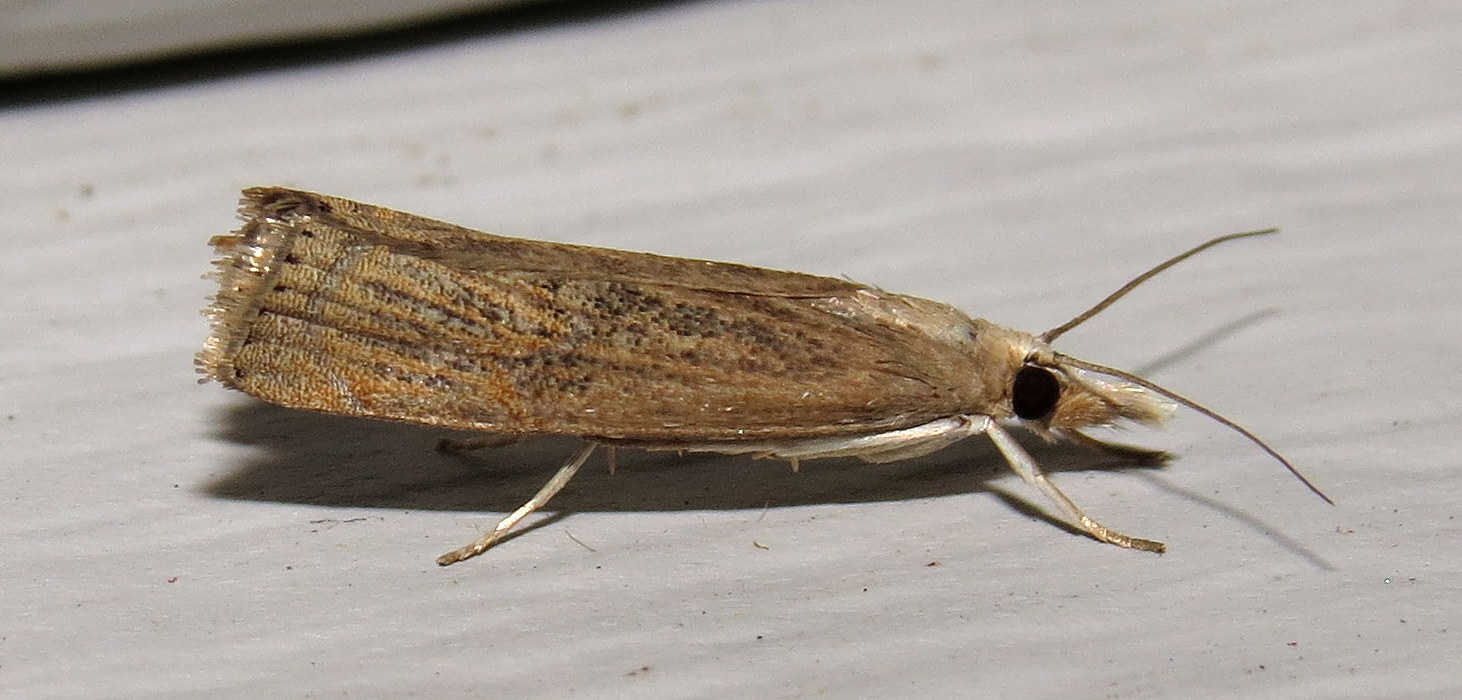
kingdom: Animalia
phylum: Arthropoda
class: Insecta
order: Lepidoptera
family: Crambidae
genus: Parapediasia
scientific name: Parapediasia teterellus
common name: Bluegrass webworm moth
